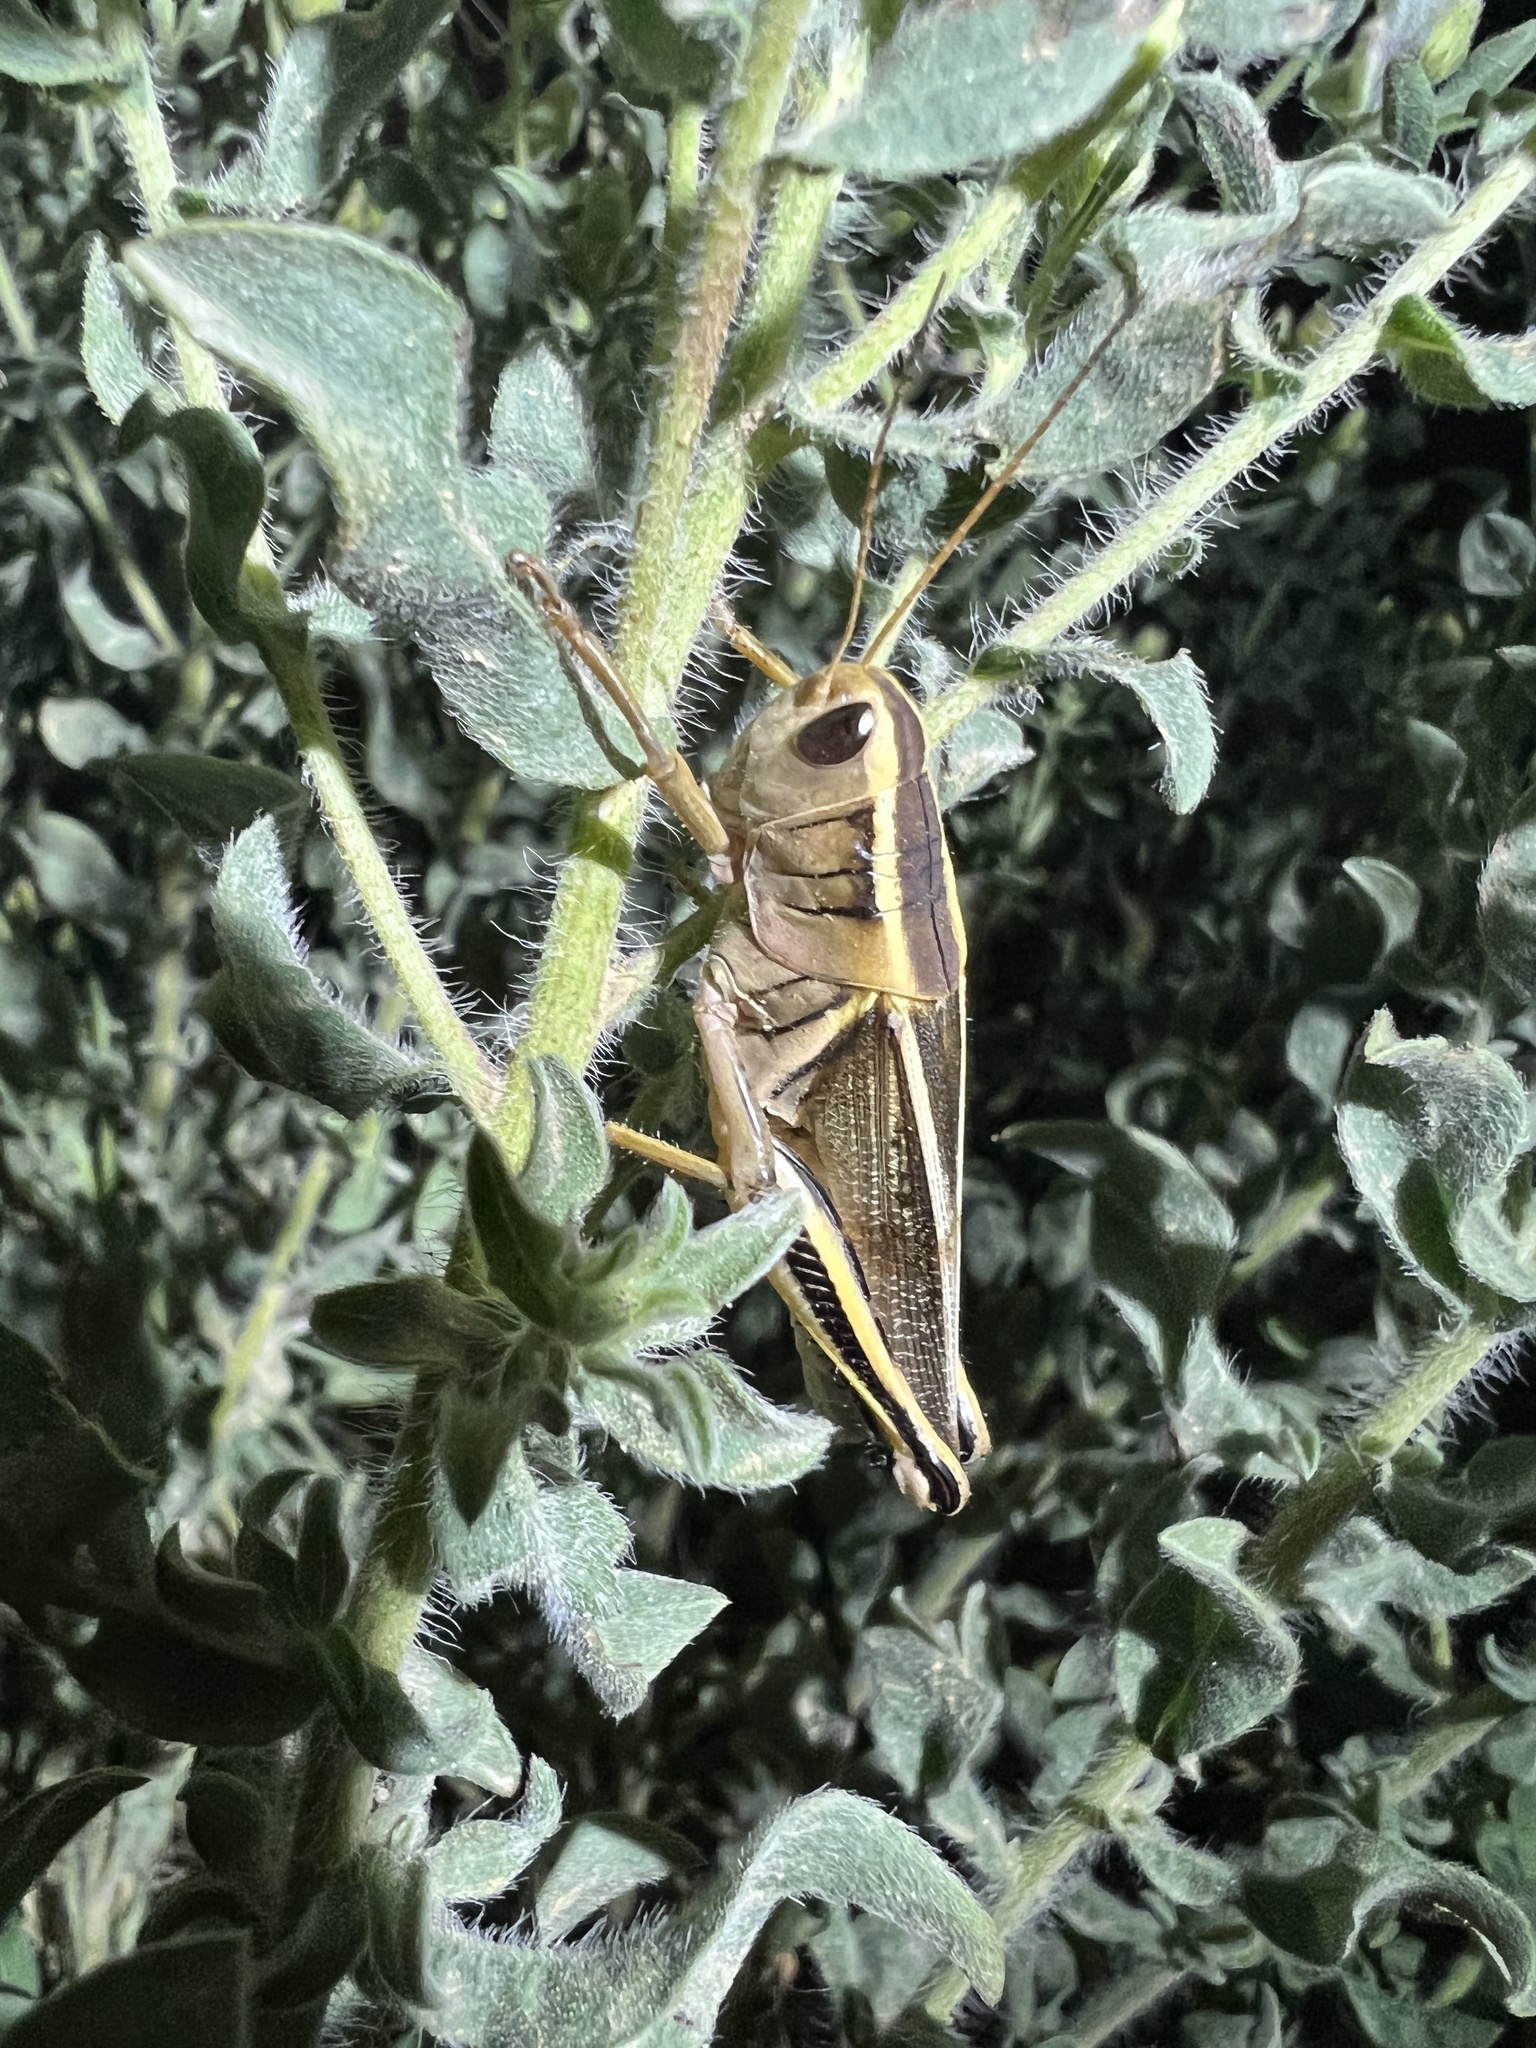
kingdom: Animalia
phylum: Arthropoda
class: Insecta
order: Orthoptera
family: Acrididae
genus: Melanoplus
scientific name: Melanoplus bivittatus
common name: Two-striped grasshopper
